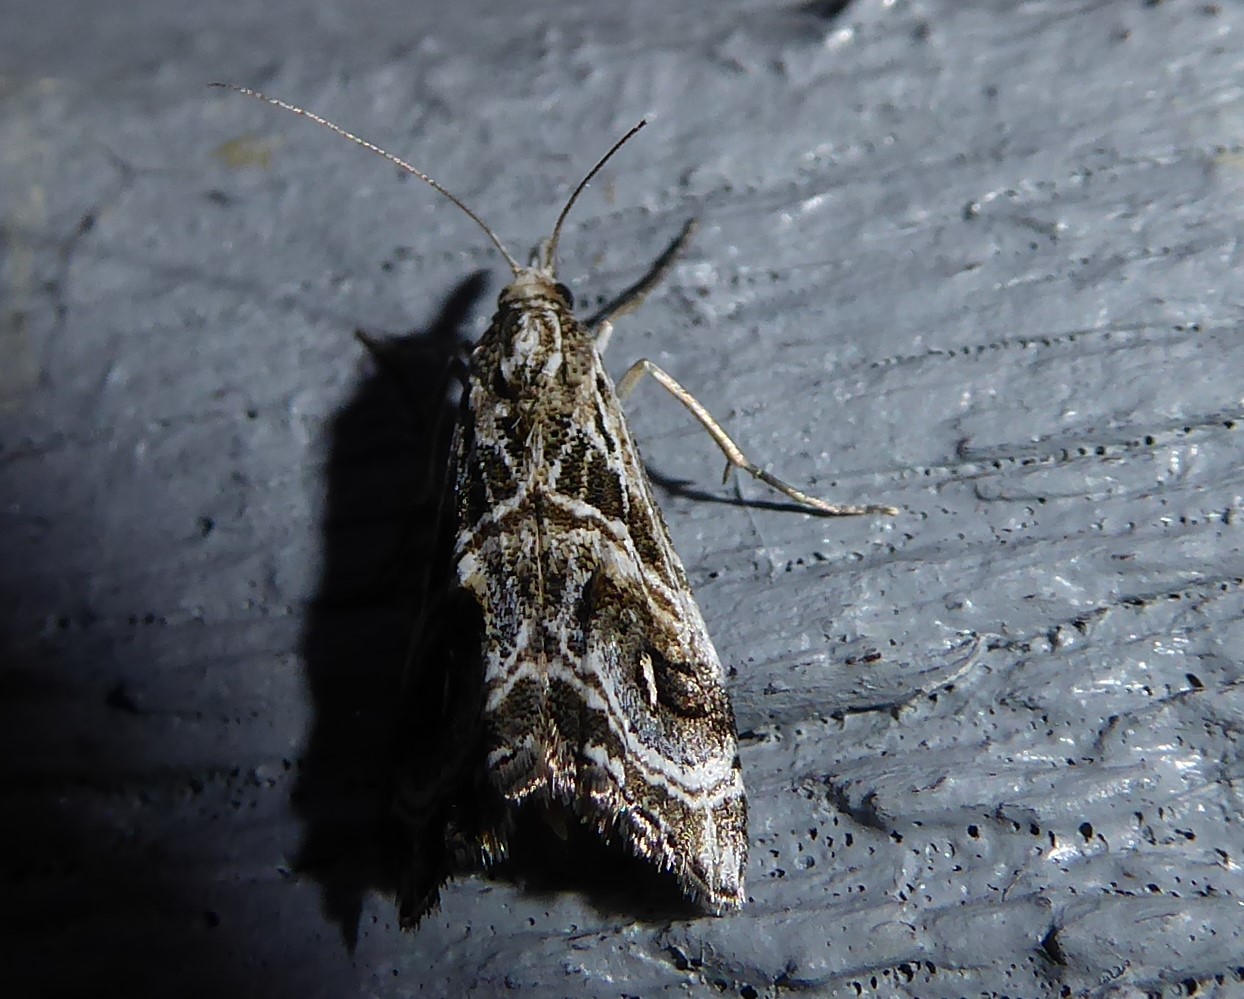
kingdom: Animalia
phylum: Arthropoda
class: Insecta
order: Lepidoptera
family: Crambidae
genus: Gadira
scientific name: Gadira acerella
